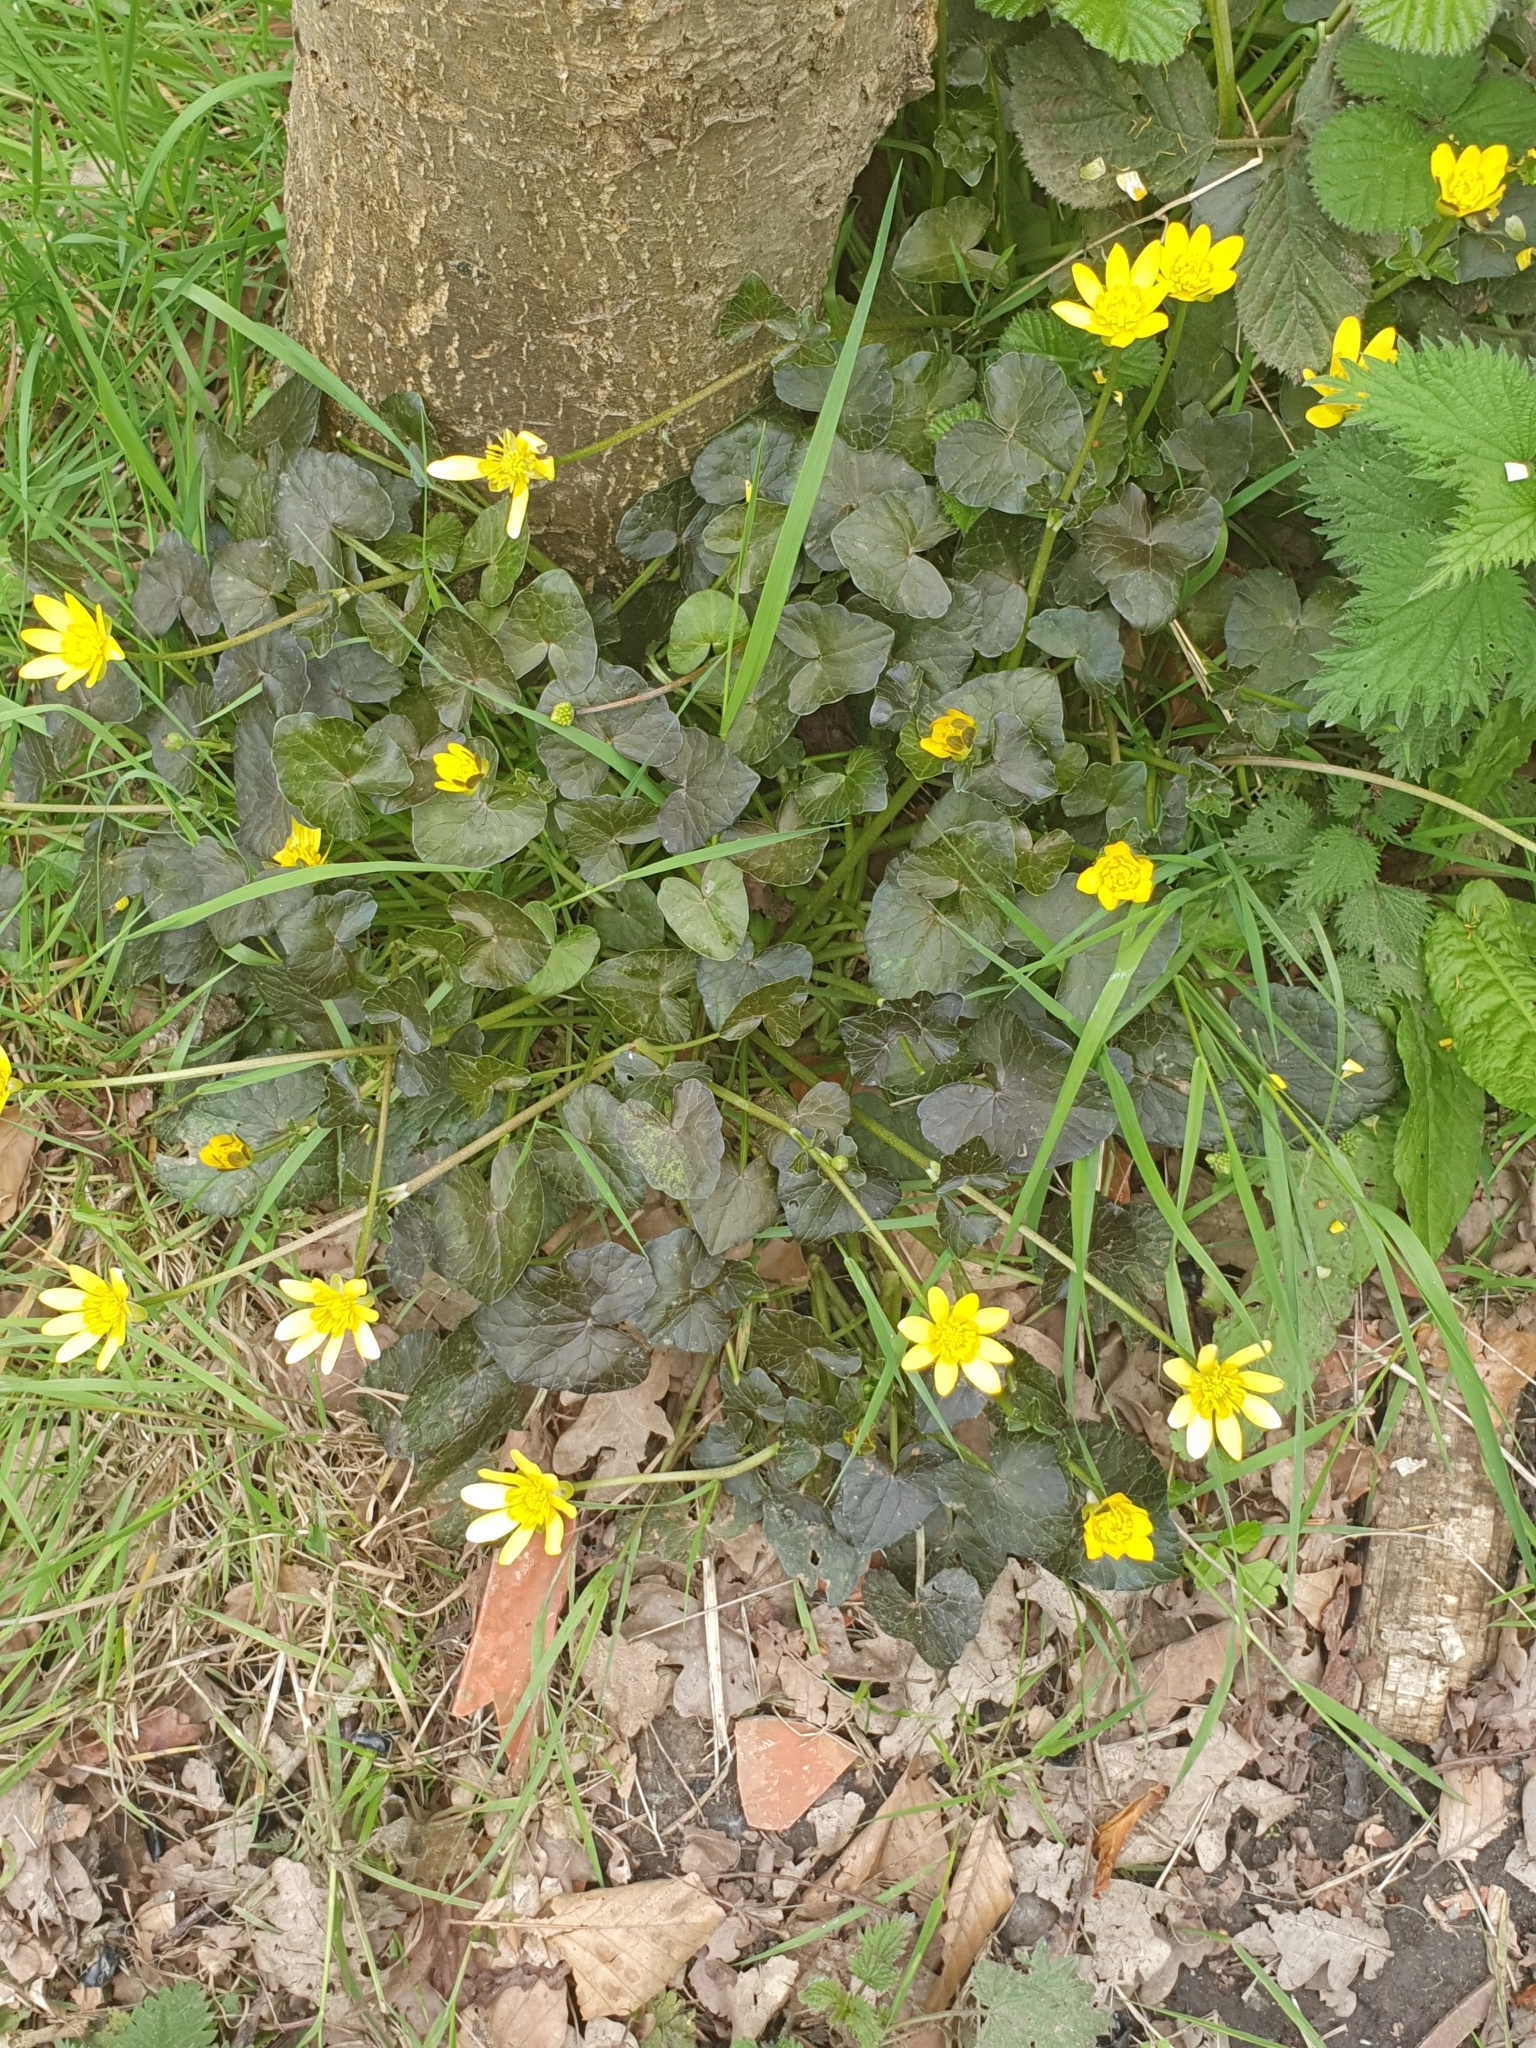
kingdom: Plantae
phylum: Tracheophyta
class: Magnoliopsida
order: Ranunculales
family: Ranunculaceae
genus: Ficaria
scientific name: Ficaria verna
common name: Lesser celandine
